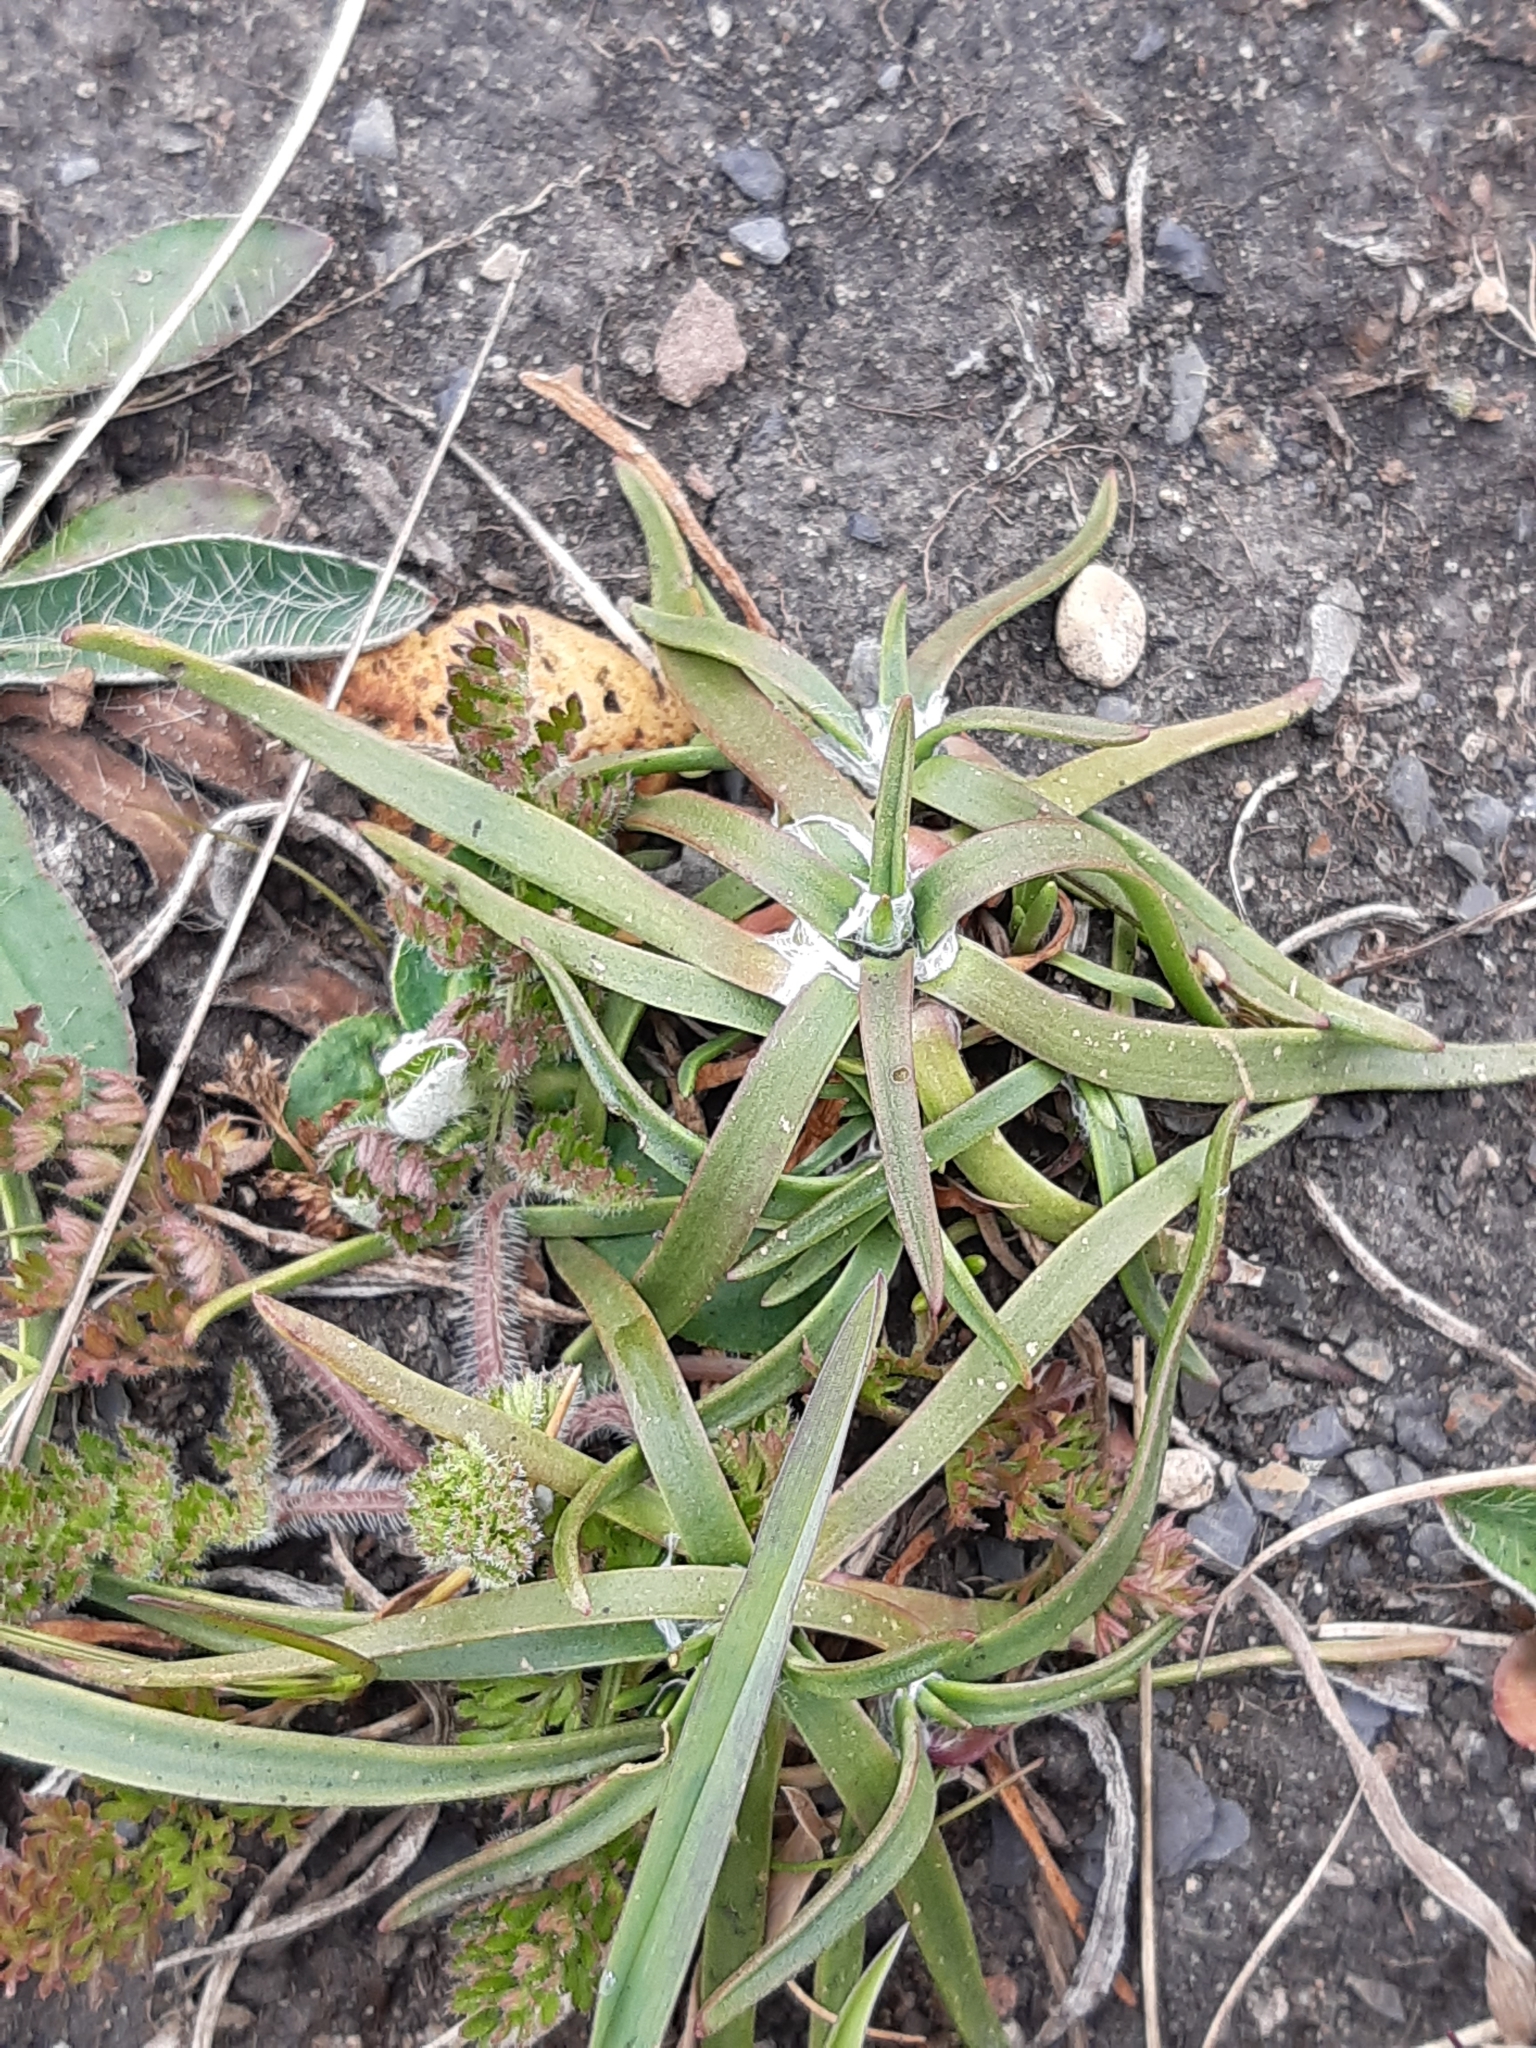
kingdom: Plantae
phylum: Tracheophyta
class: Magnoliopsida
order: Lamiales
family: Plantaginaceae
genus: Plantago
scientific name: Plantago maritima
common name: Sea plantain
